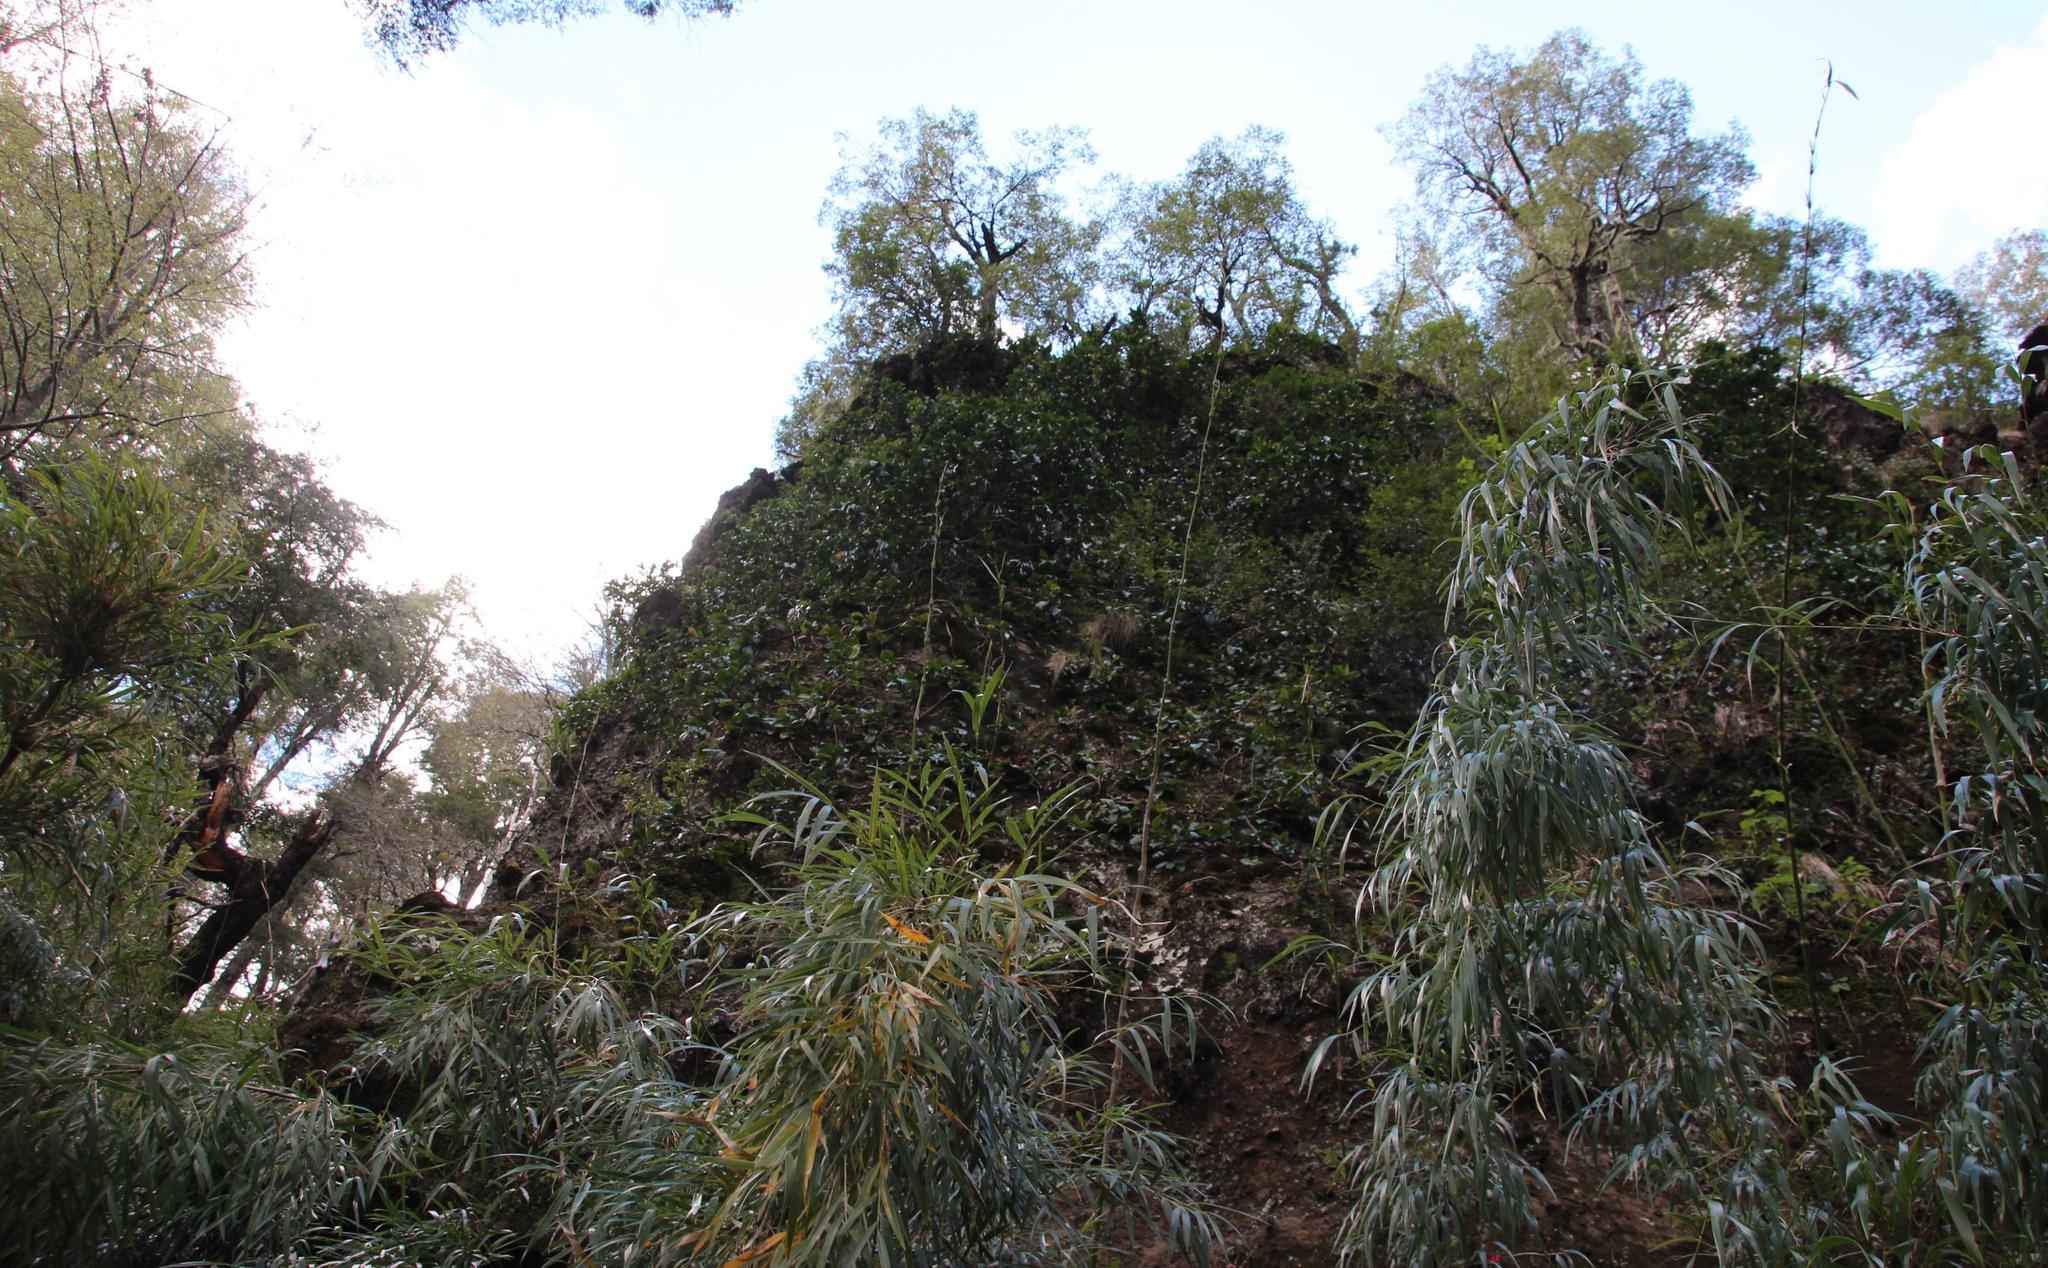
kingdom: Plantae
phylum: Tracheophyta
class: Magnoliopsida
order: Cornales
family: Hydrangeaceae
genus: Hydrangea
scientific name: Hydrangea serratifolia
